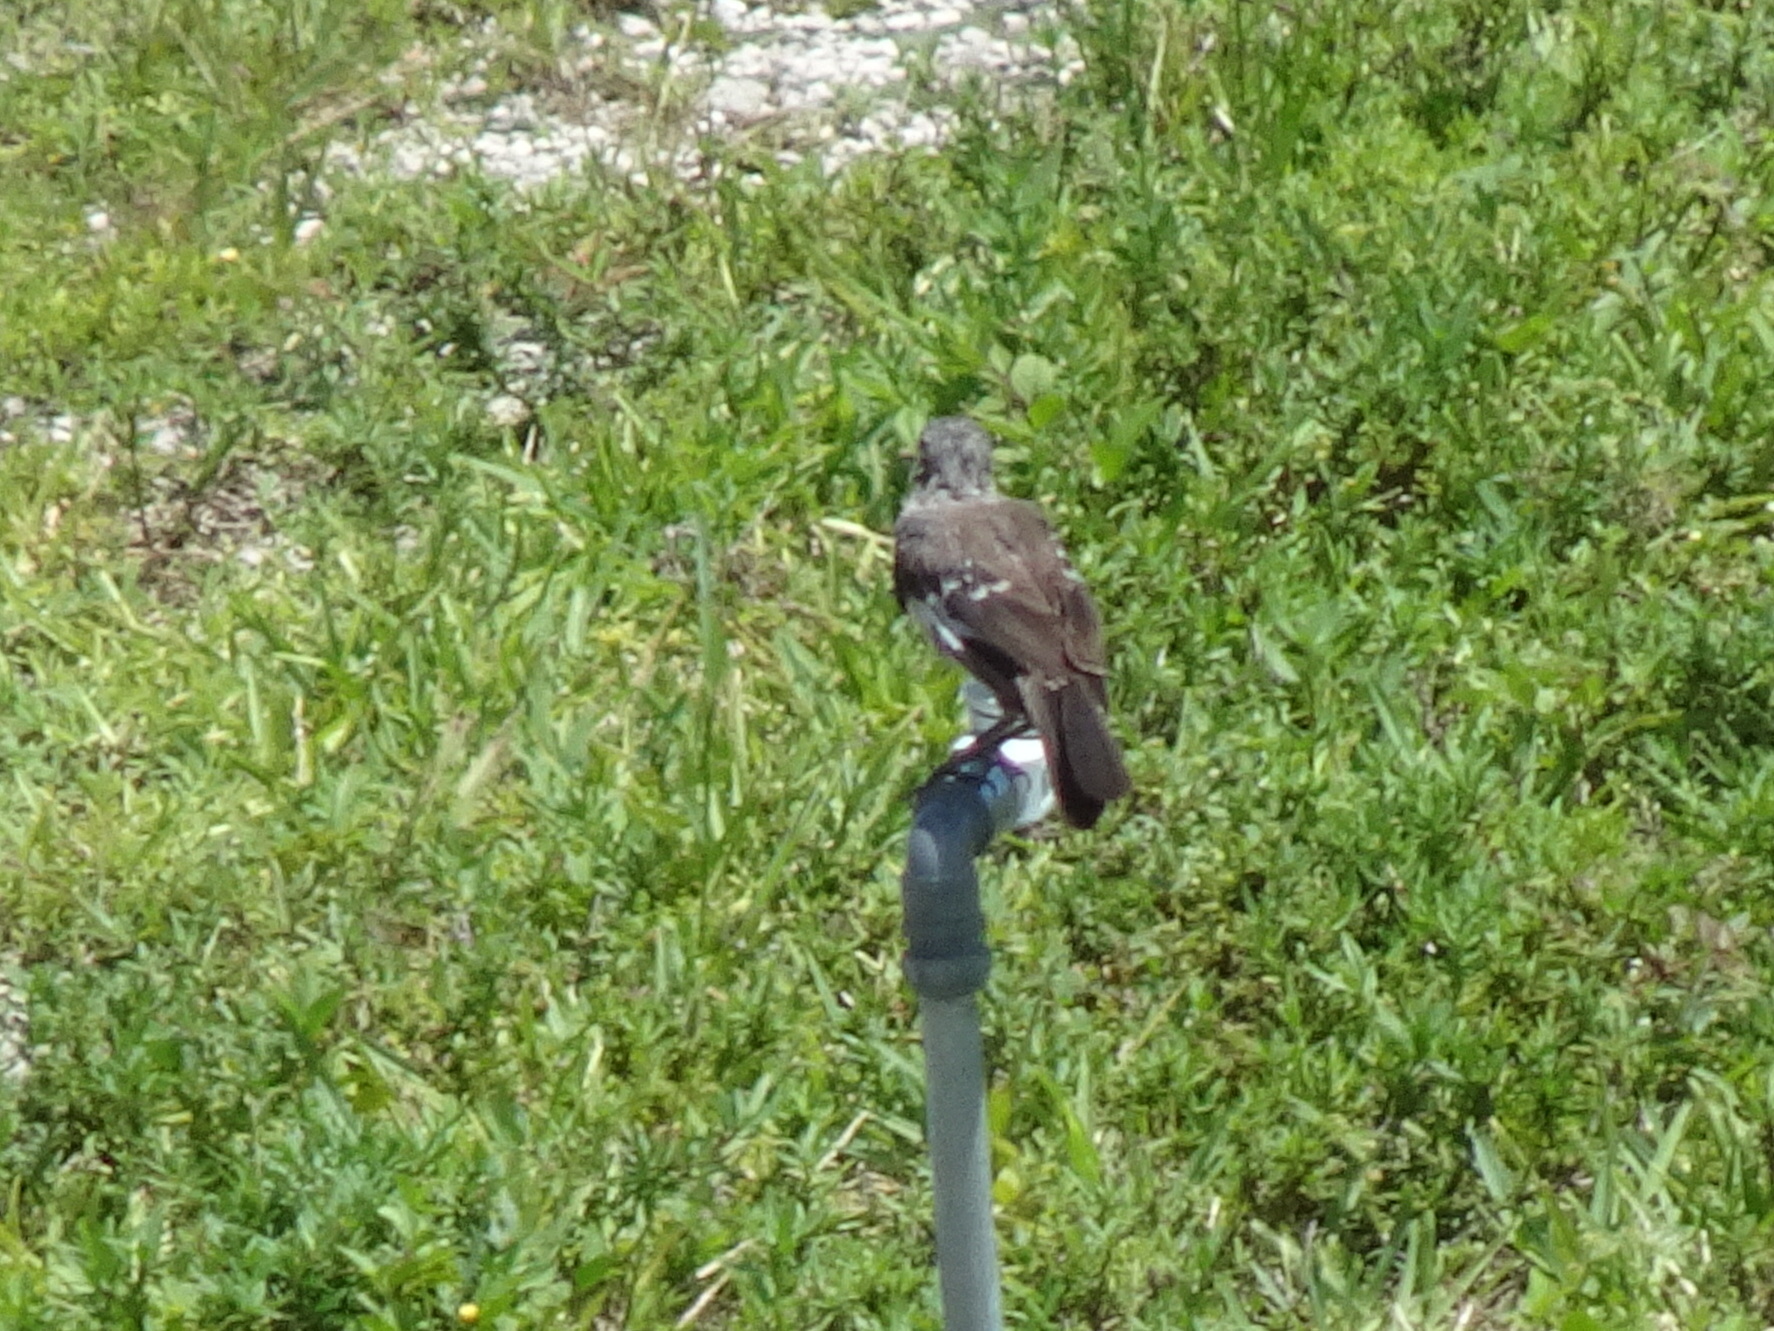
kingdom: Animalia
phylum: Chordata
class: Aves
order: Passeriformes
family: Mimidae
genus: Mimus
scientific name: Mimus polyglottos
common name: Northern mockingbird
